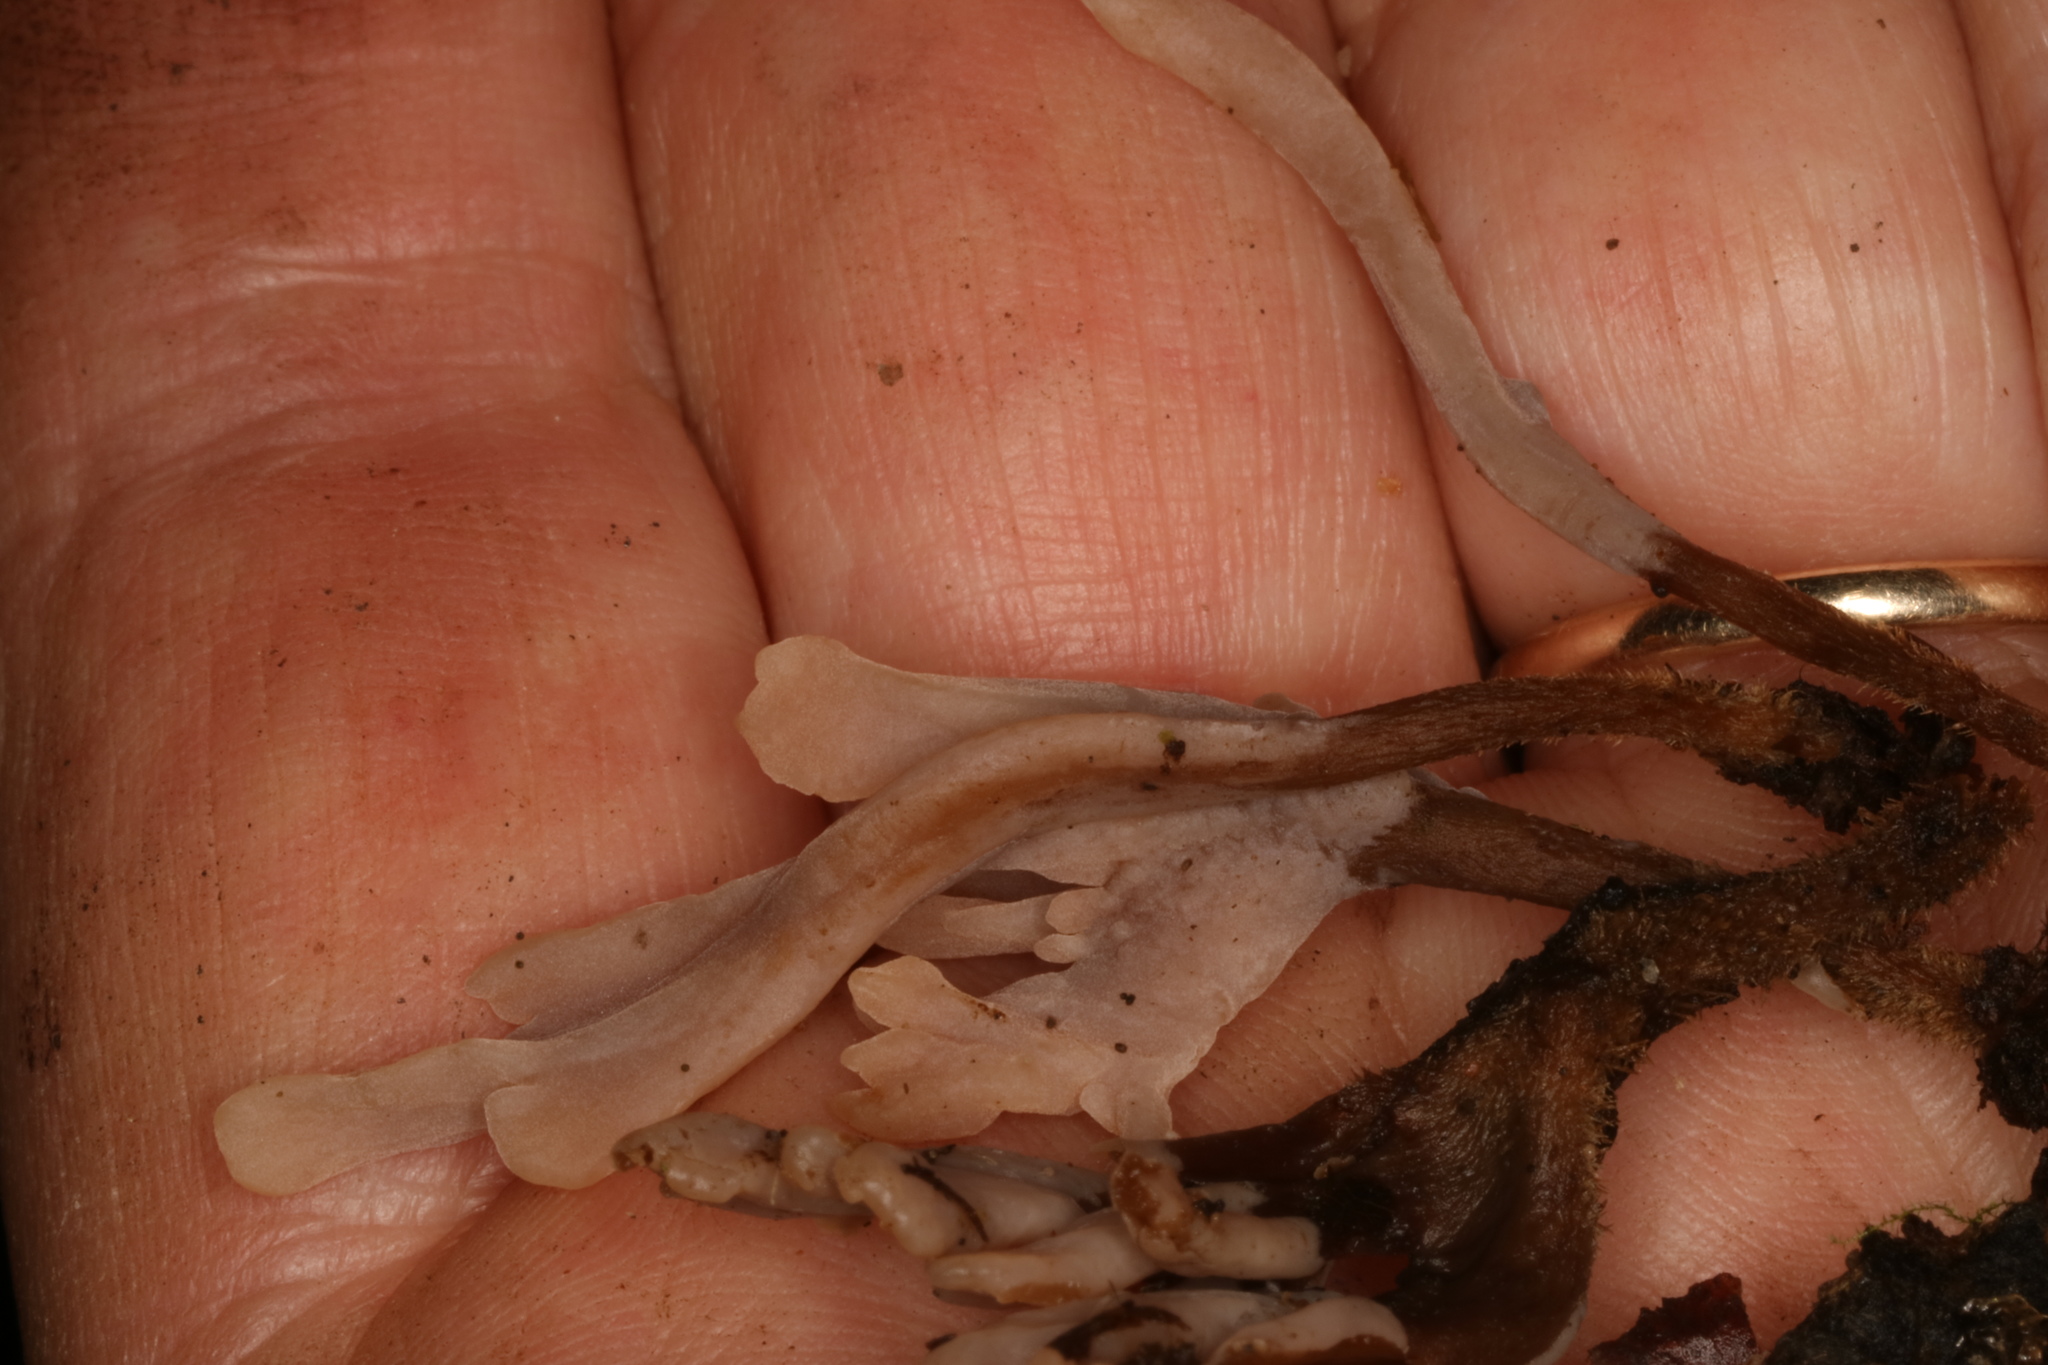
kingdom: Fungi
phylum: Basidiomycota
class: Agaricomycetes
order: Cantharellales
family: Hydnaceae
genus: Clavulina
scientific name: Clavulina ornatipes
